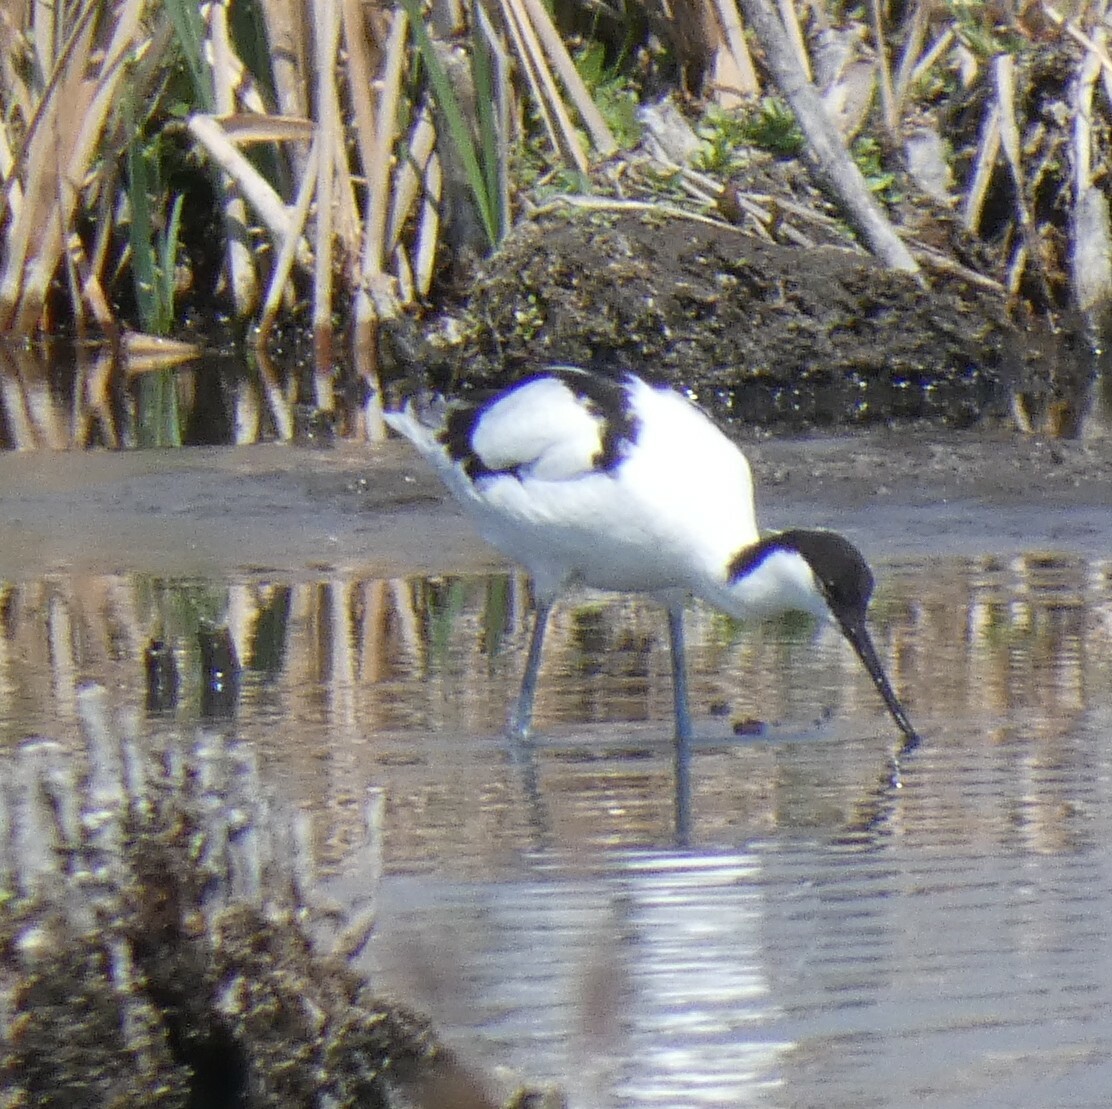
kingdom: Animalia
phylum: Chordata
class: Aves
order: Charadriiformes
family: Recurvirostridae
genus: Recurvirostra
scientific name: Recurvirostra avosetta
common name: Pied avocet
